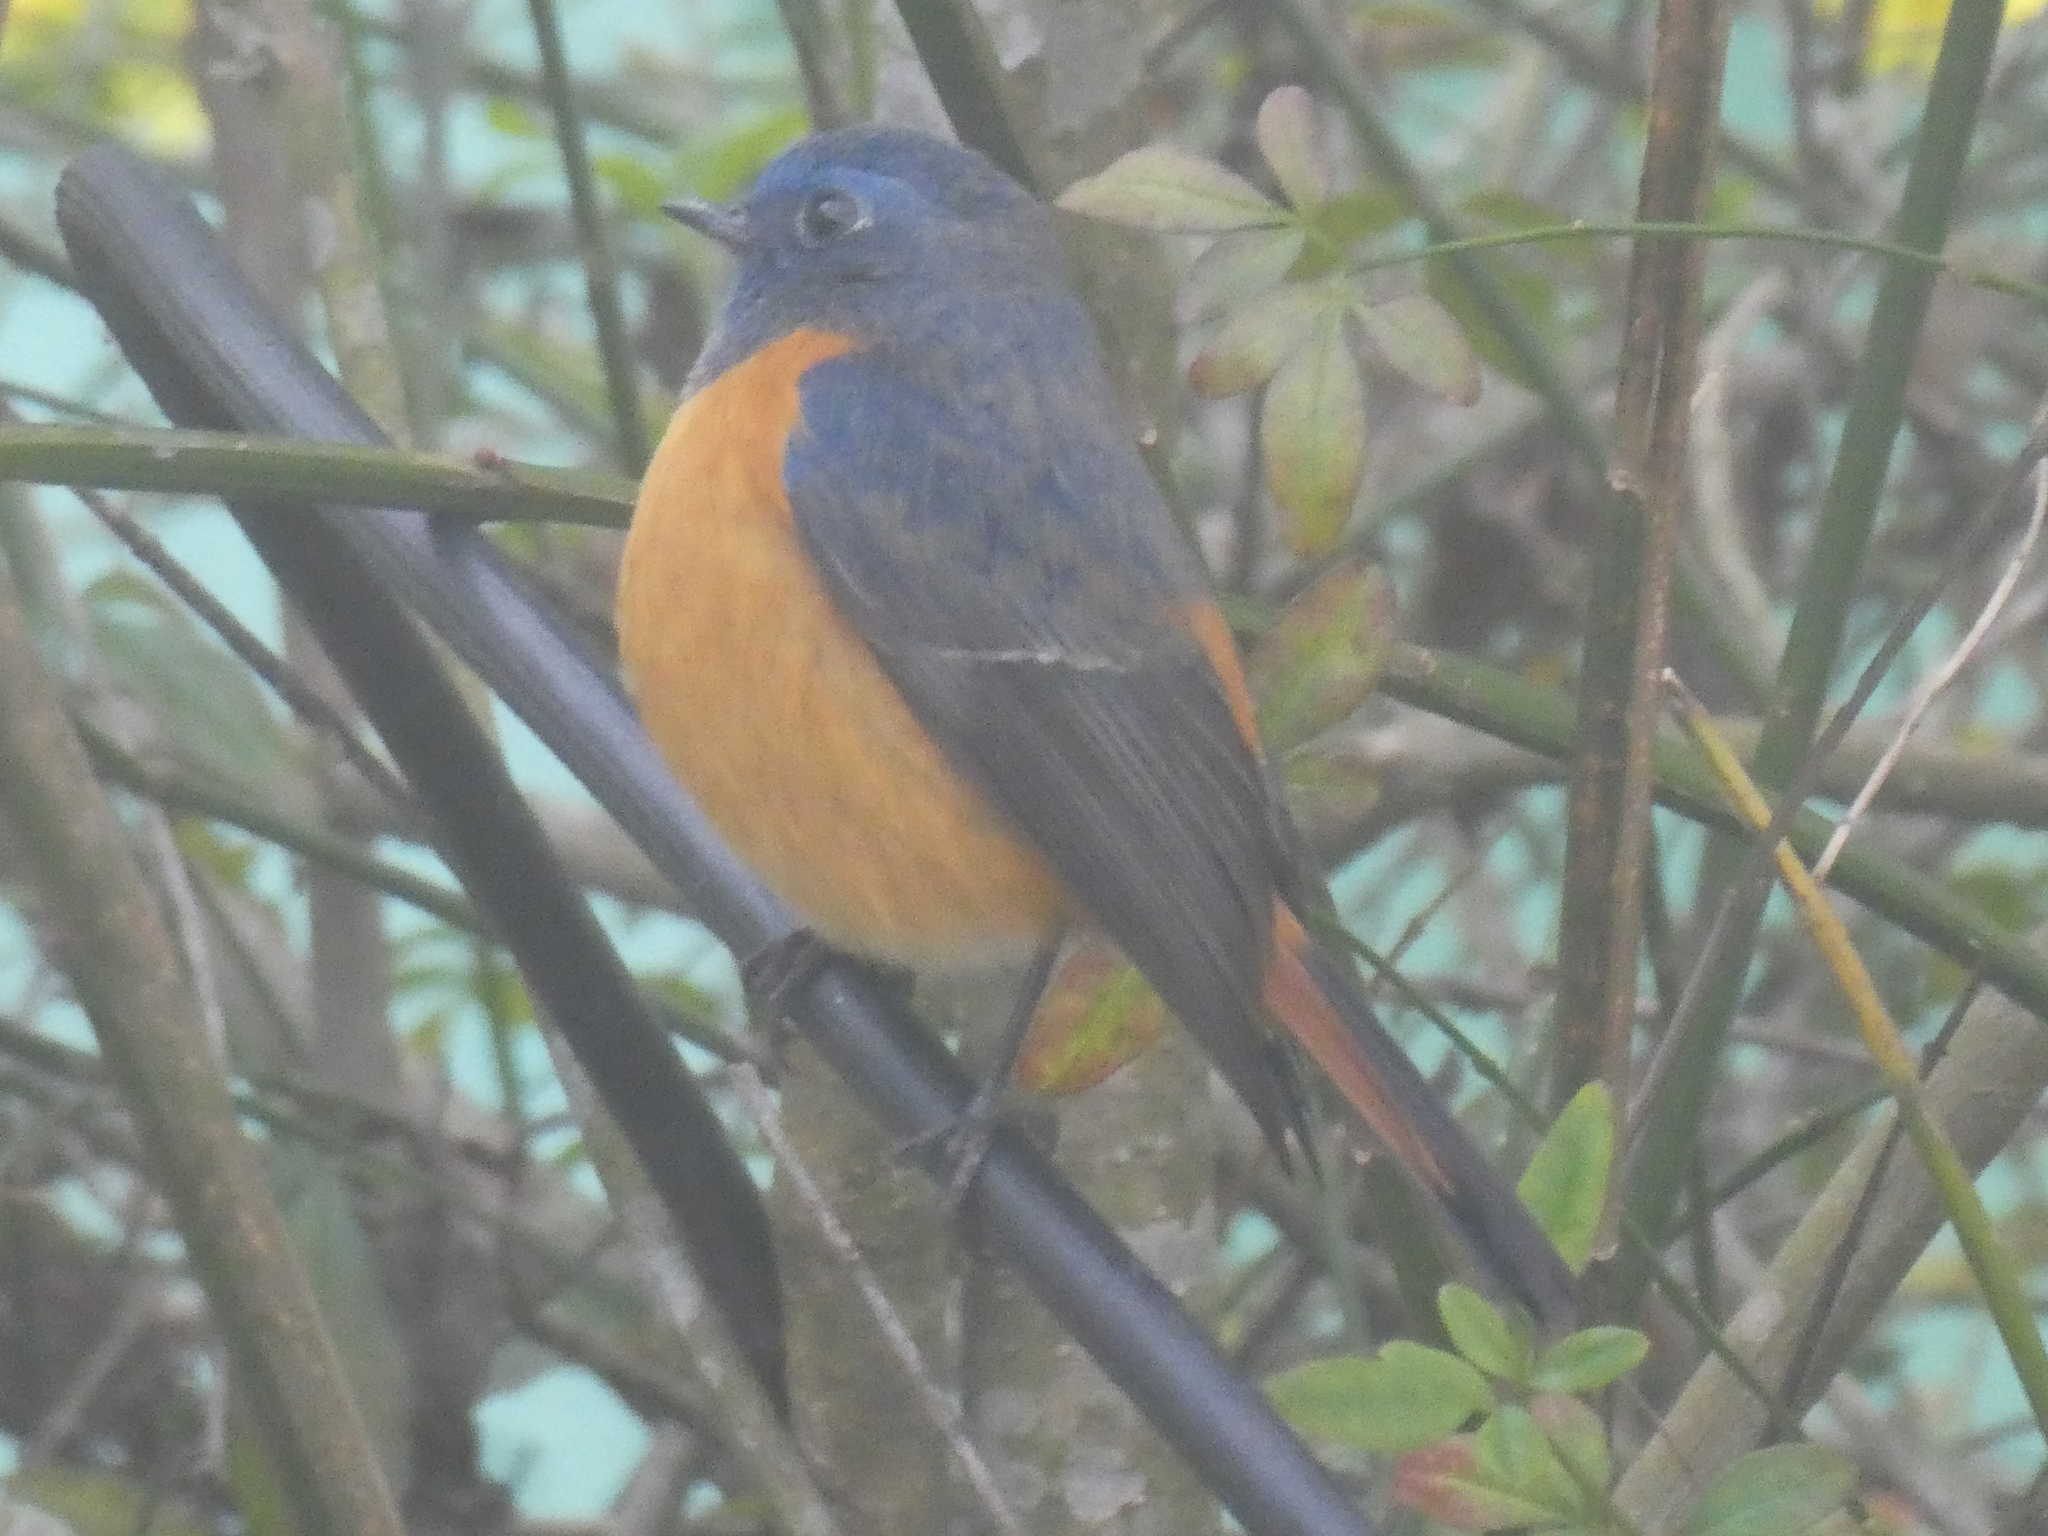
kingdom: Animalia
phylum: Chordata
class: Aves
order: Passeriformes
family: Muscicapidae
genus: Phoenicurus
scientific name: Phoenicurus frontalis
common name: Blue-fronted redstart
